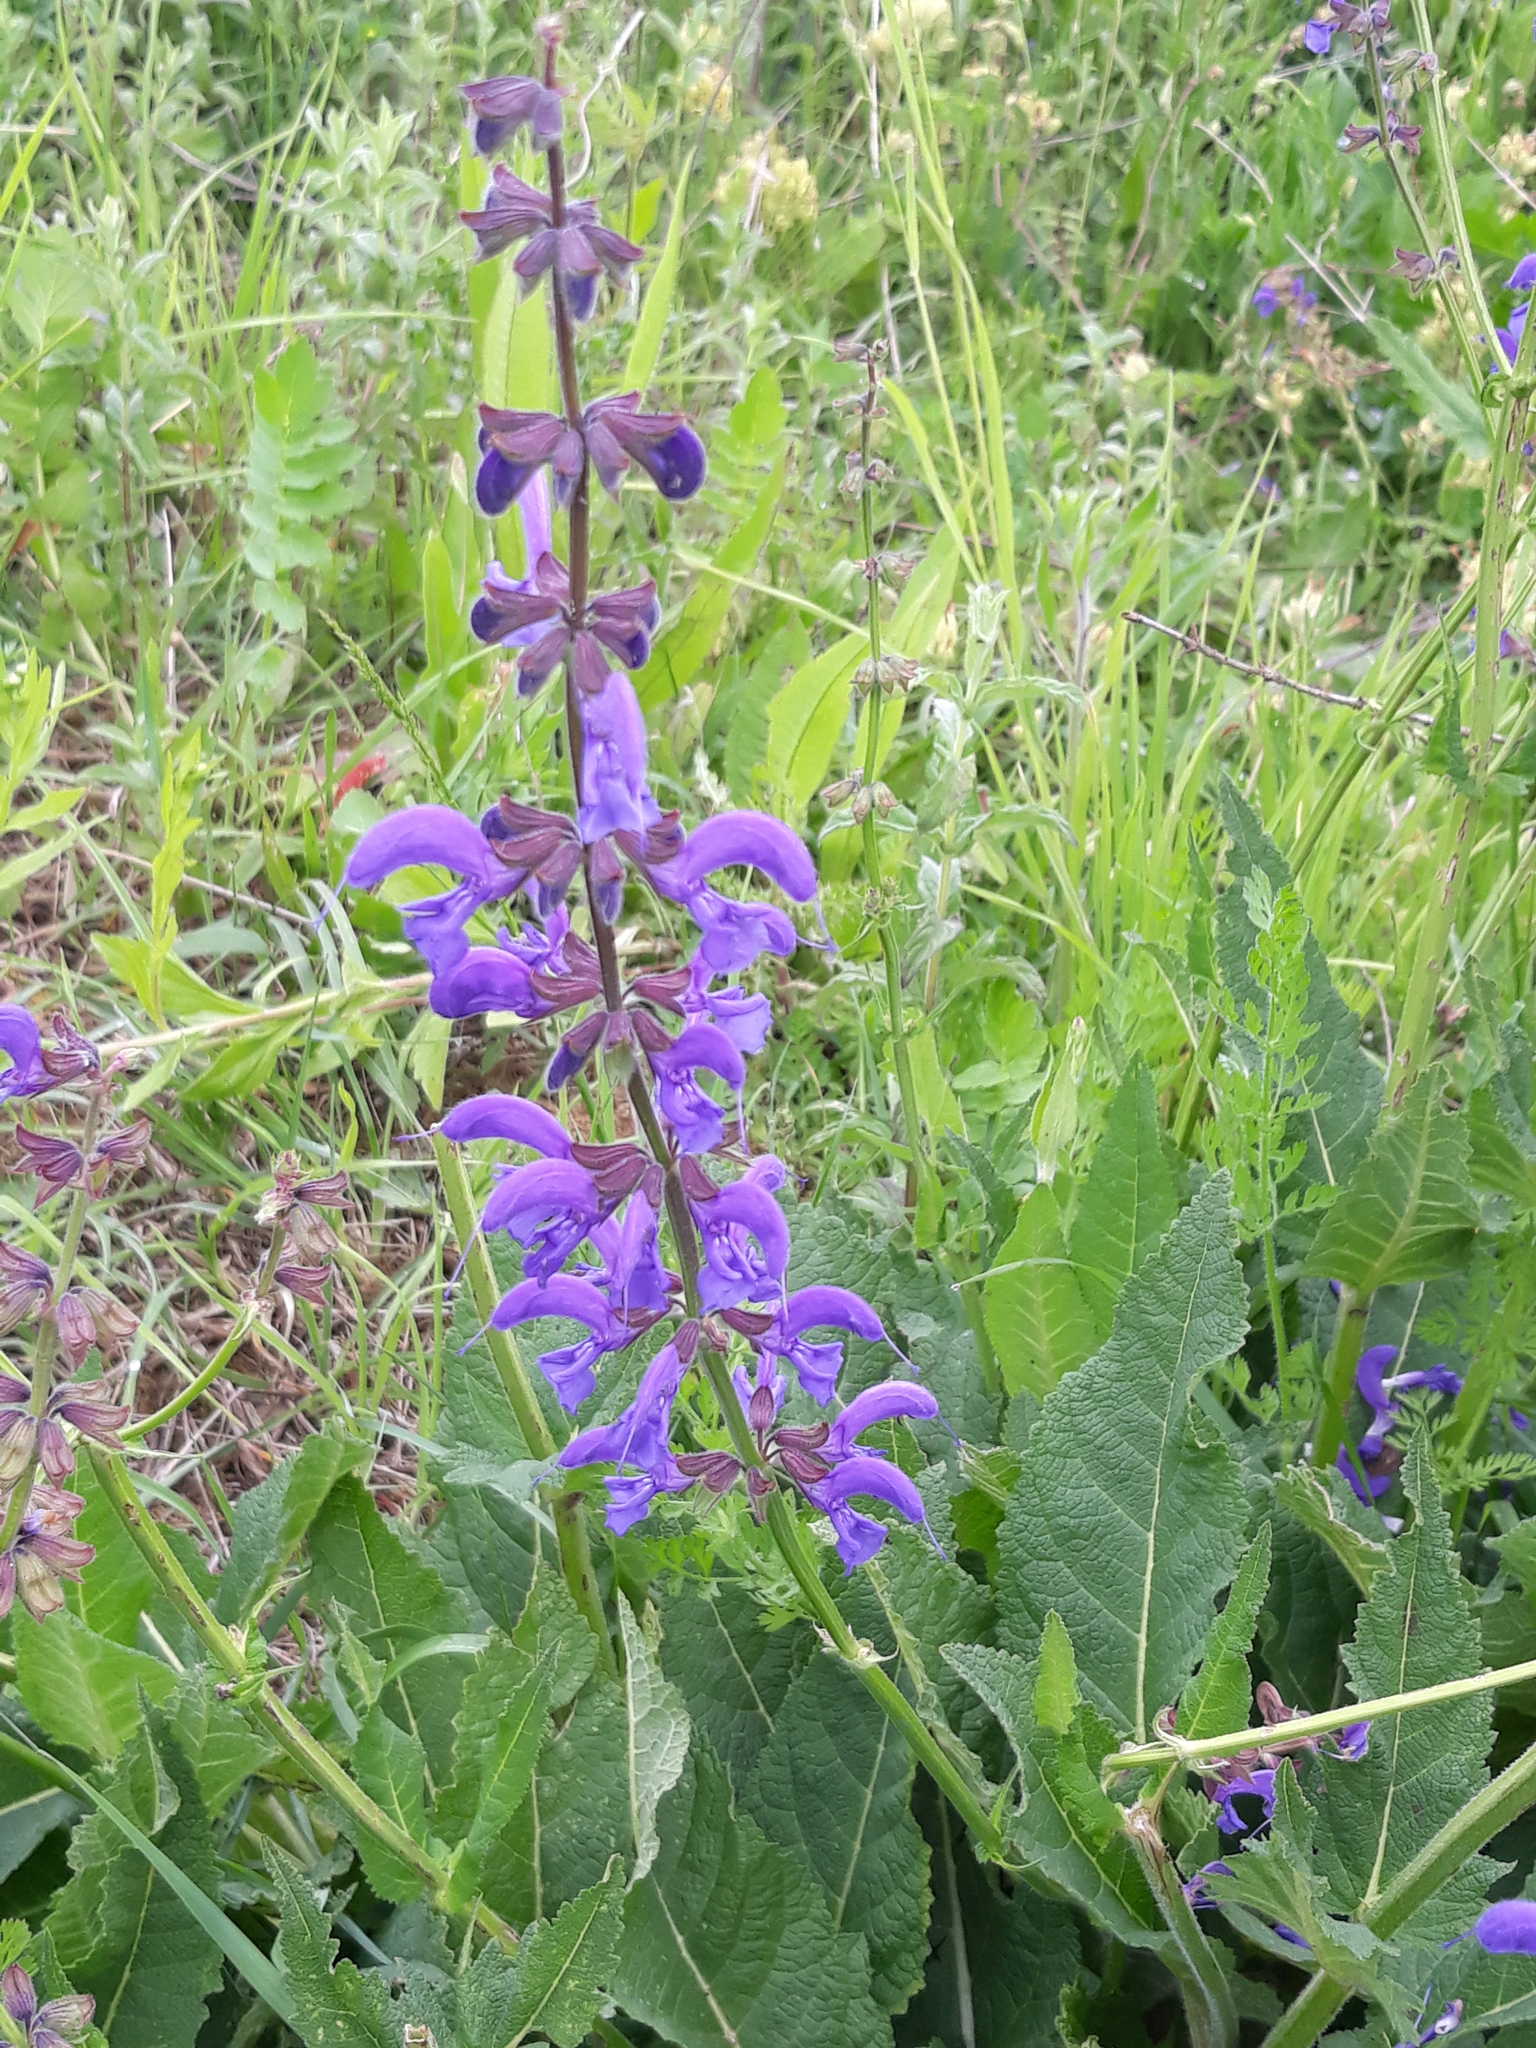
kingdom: Plantae
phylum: Tracheophyta
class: Magnoliopsida
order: Lamiales
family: Lamiaceae
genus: Salvia
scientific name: Salvia pratensis
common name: Meadow sage
